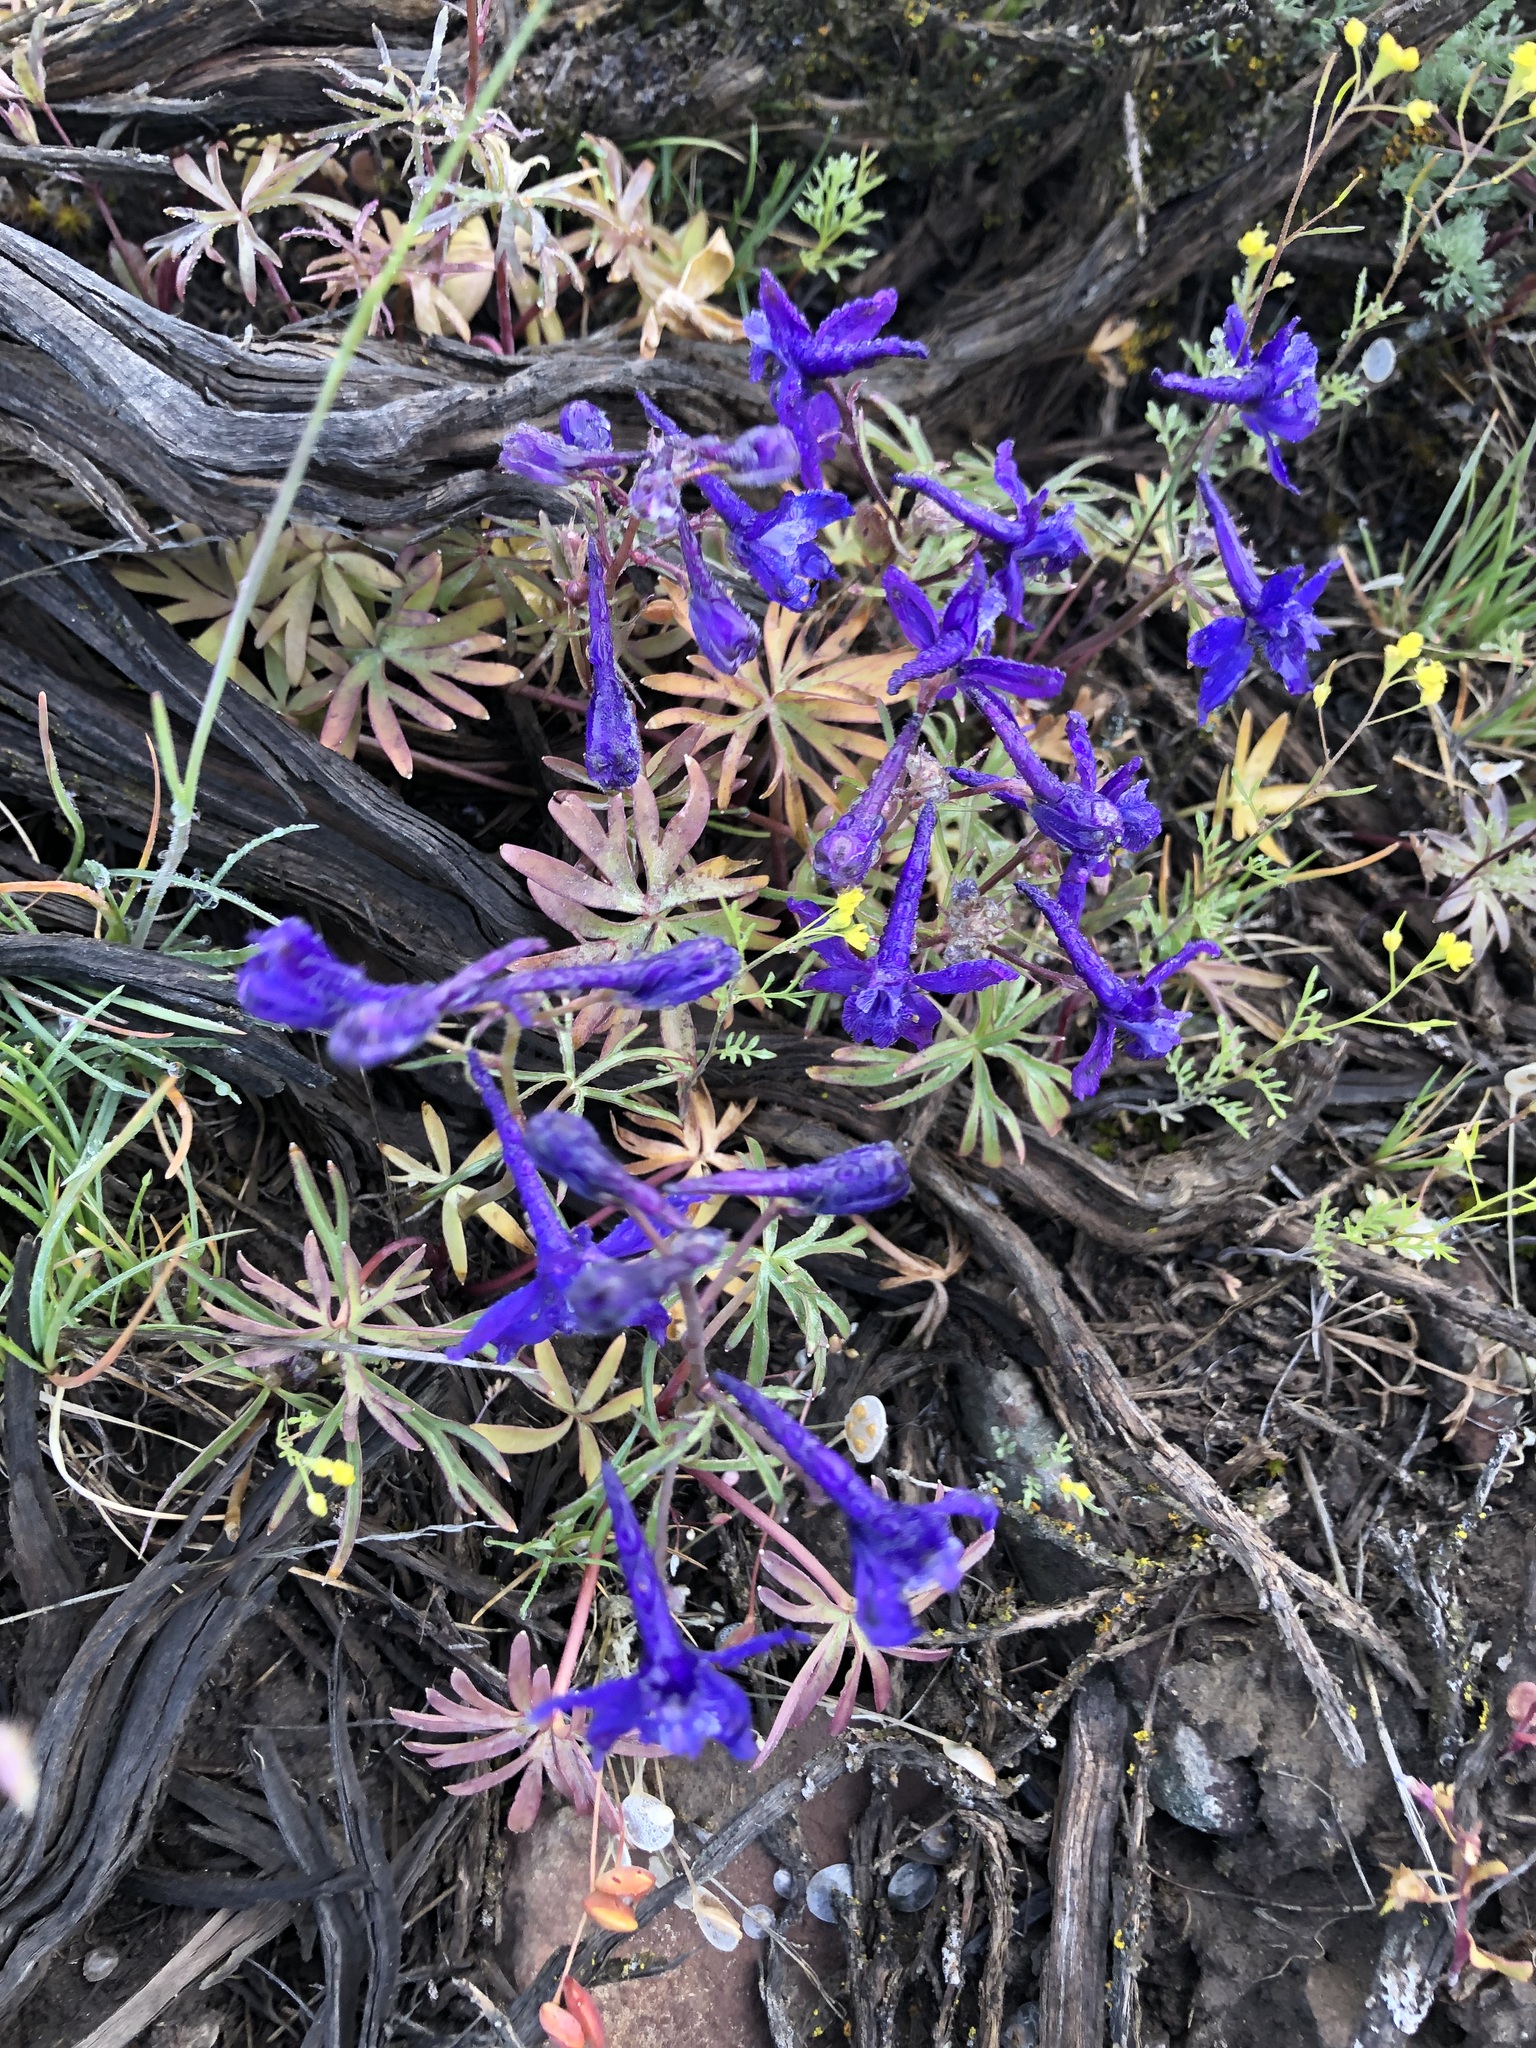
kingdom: Plantae
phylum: Tracheophyta
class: Magnoliopsida
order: Ranunculales
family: Ranunculaceae
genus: Delphinium
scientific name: Delphinium nuttallianum
